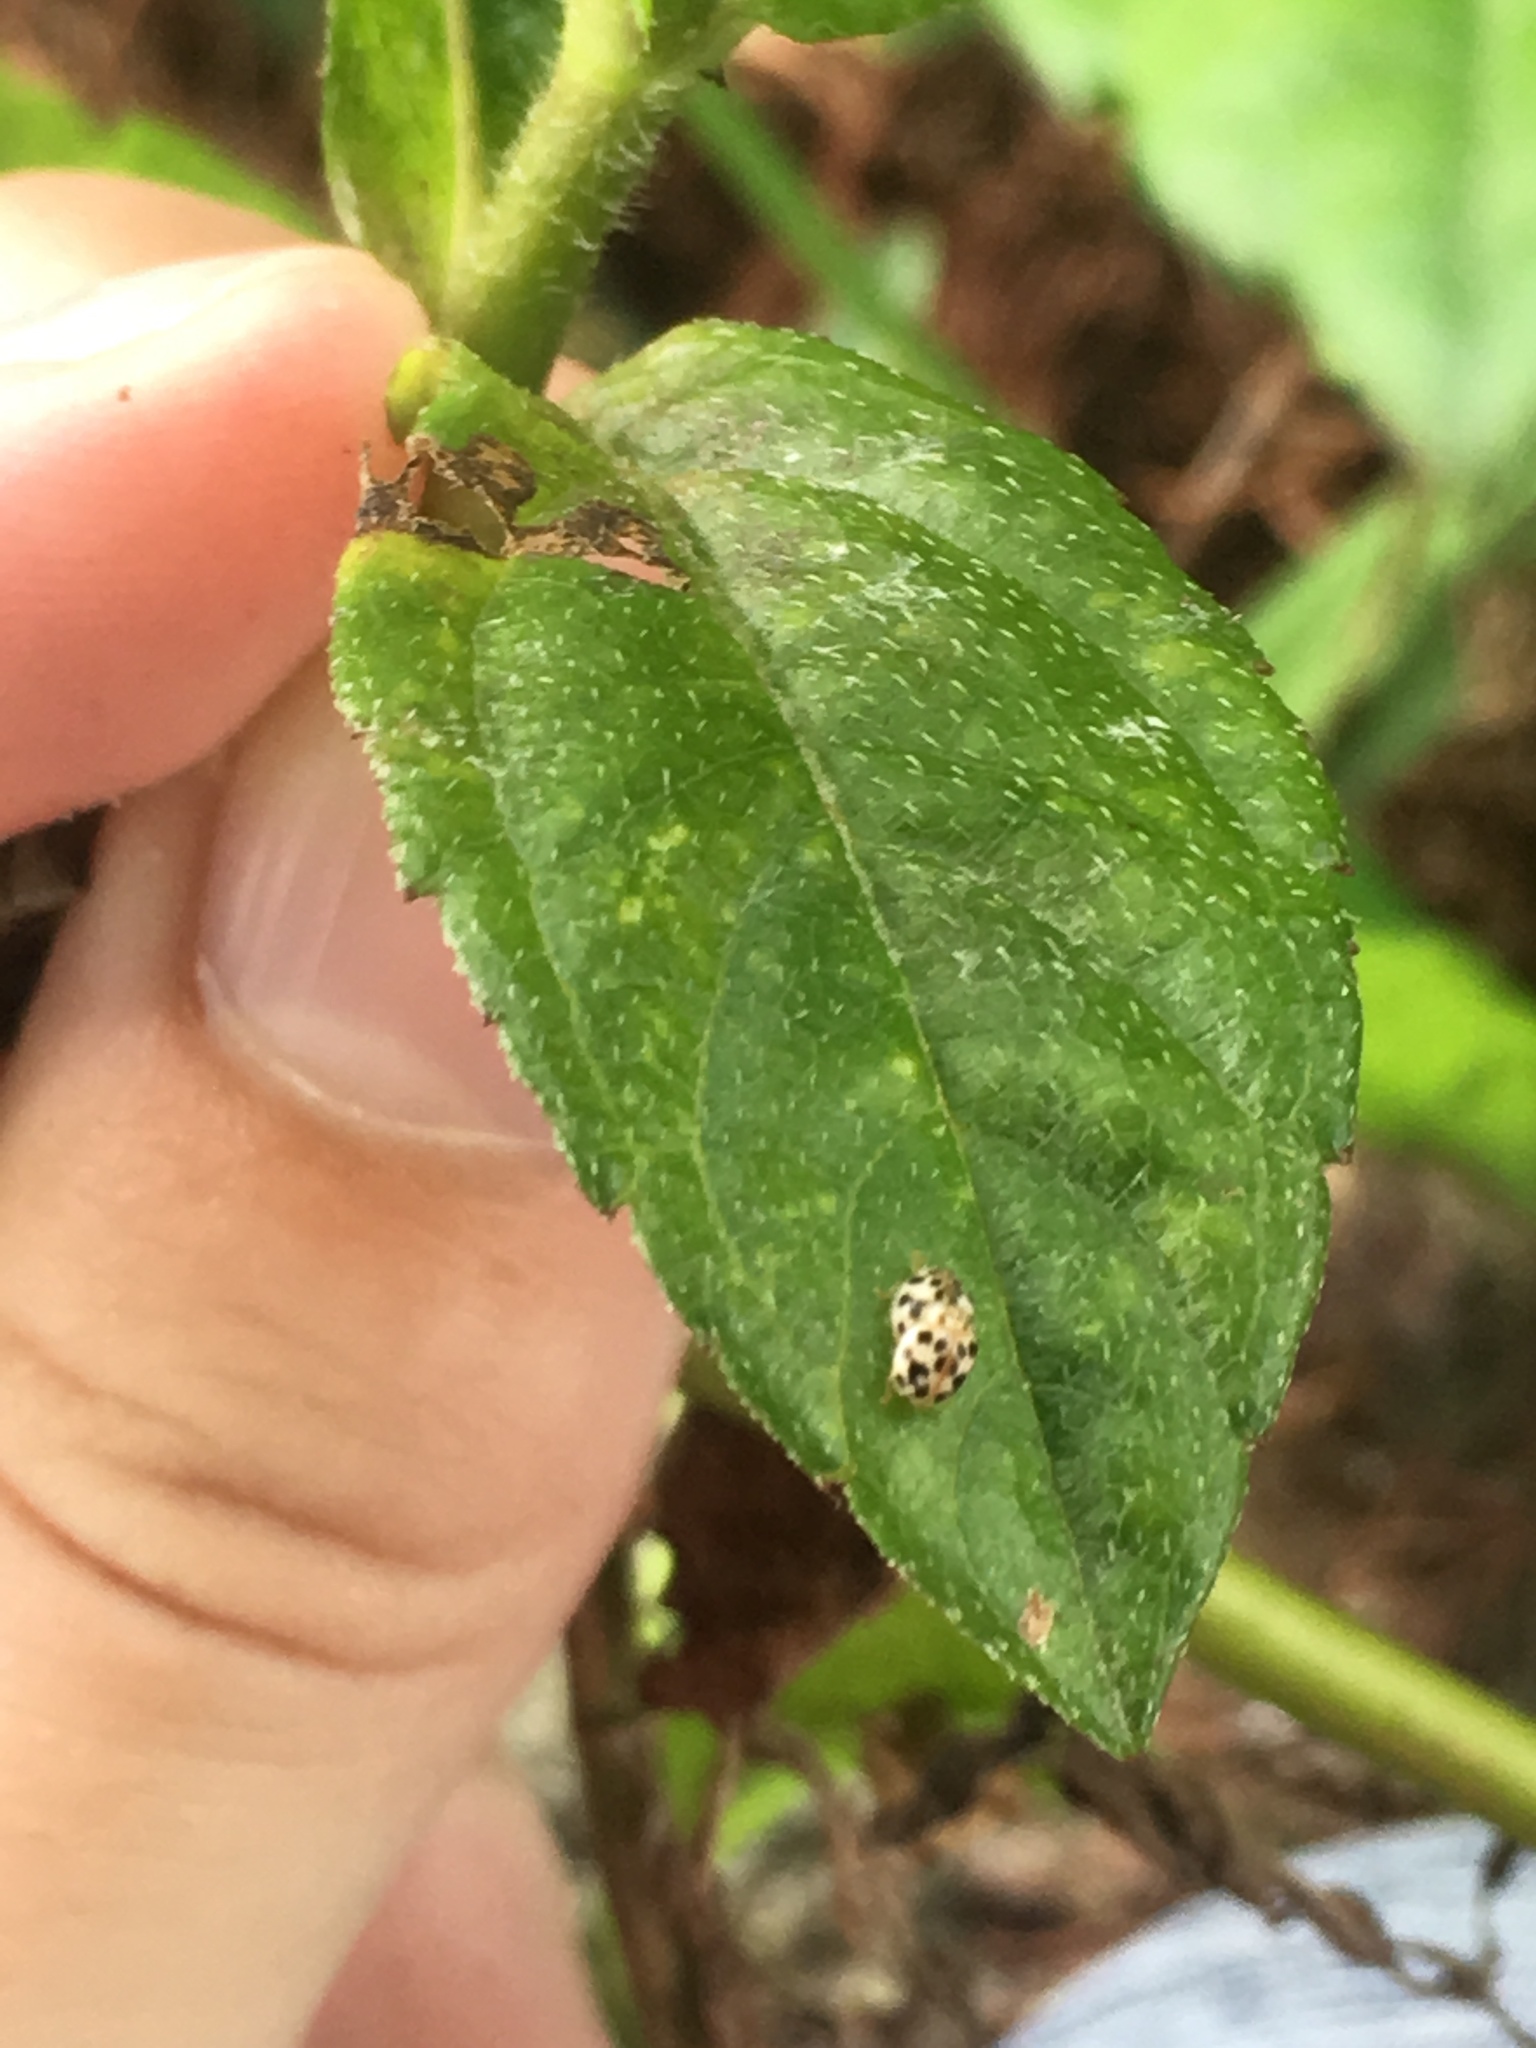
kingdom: Animalia
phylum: Arthropoda
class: Insecta
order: Coleoptera
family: Coccinellidae
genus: Psyllobora
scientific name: Psyllobora parvinotata
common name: Small-spotted psyllobora
